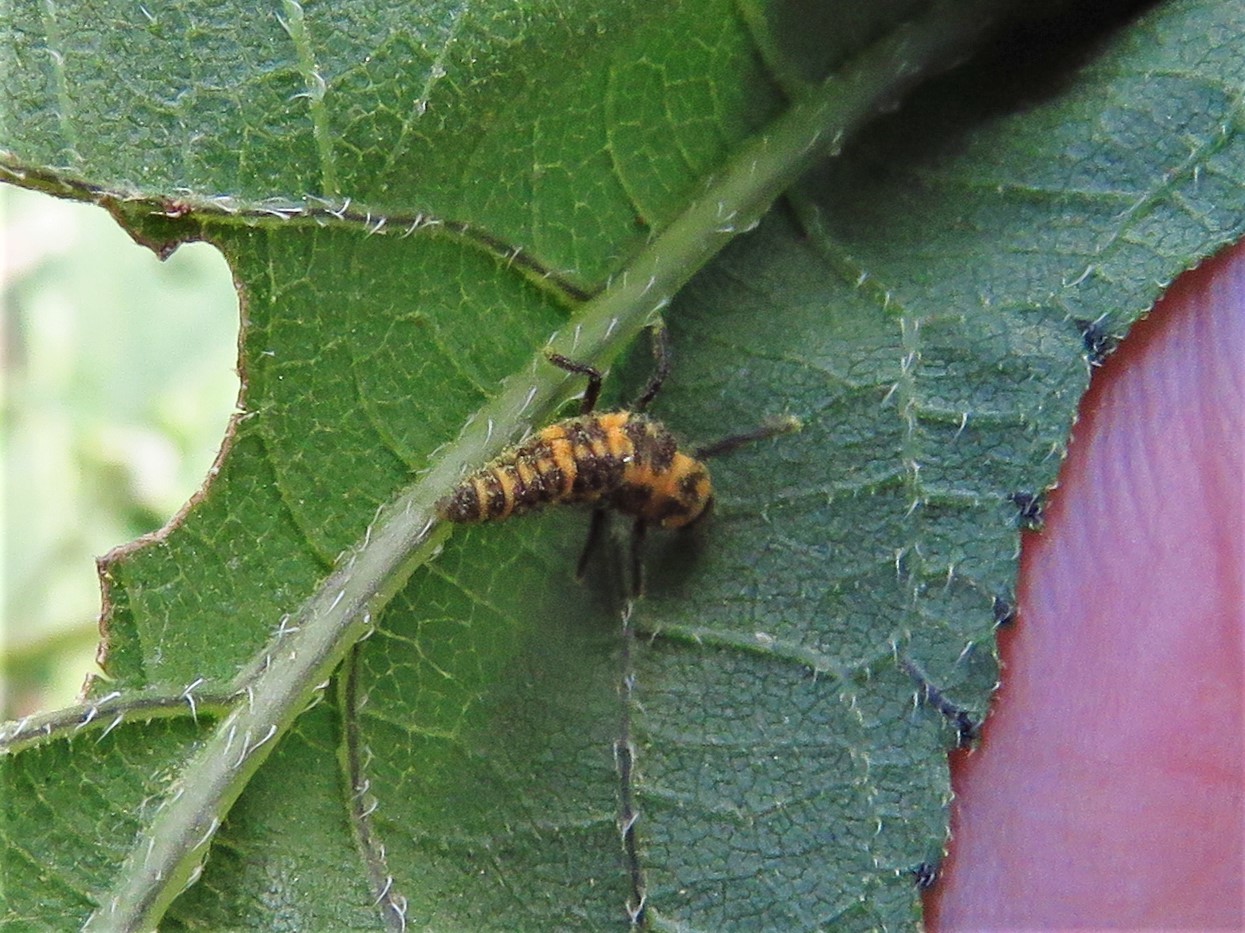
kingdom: Animalia
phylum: Arthropoda
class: Insecta
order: Coleoptera
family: Coccinellidae
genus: Coleomegilla
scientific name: Coleomegilla maculata
